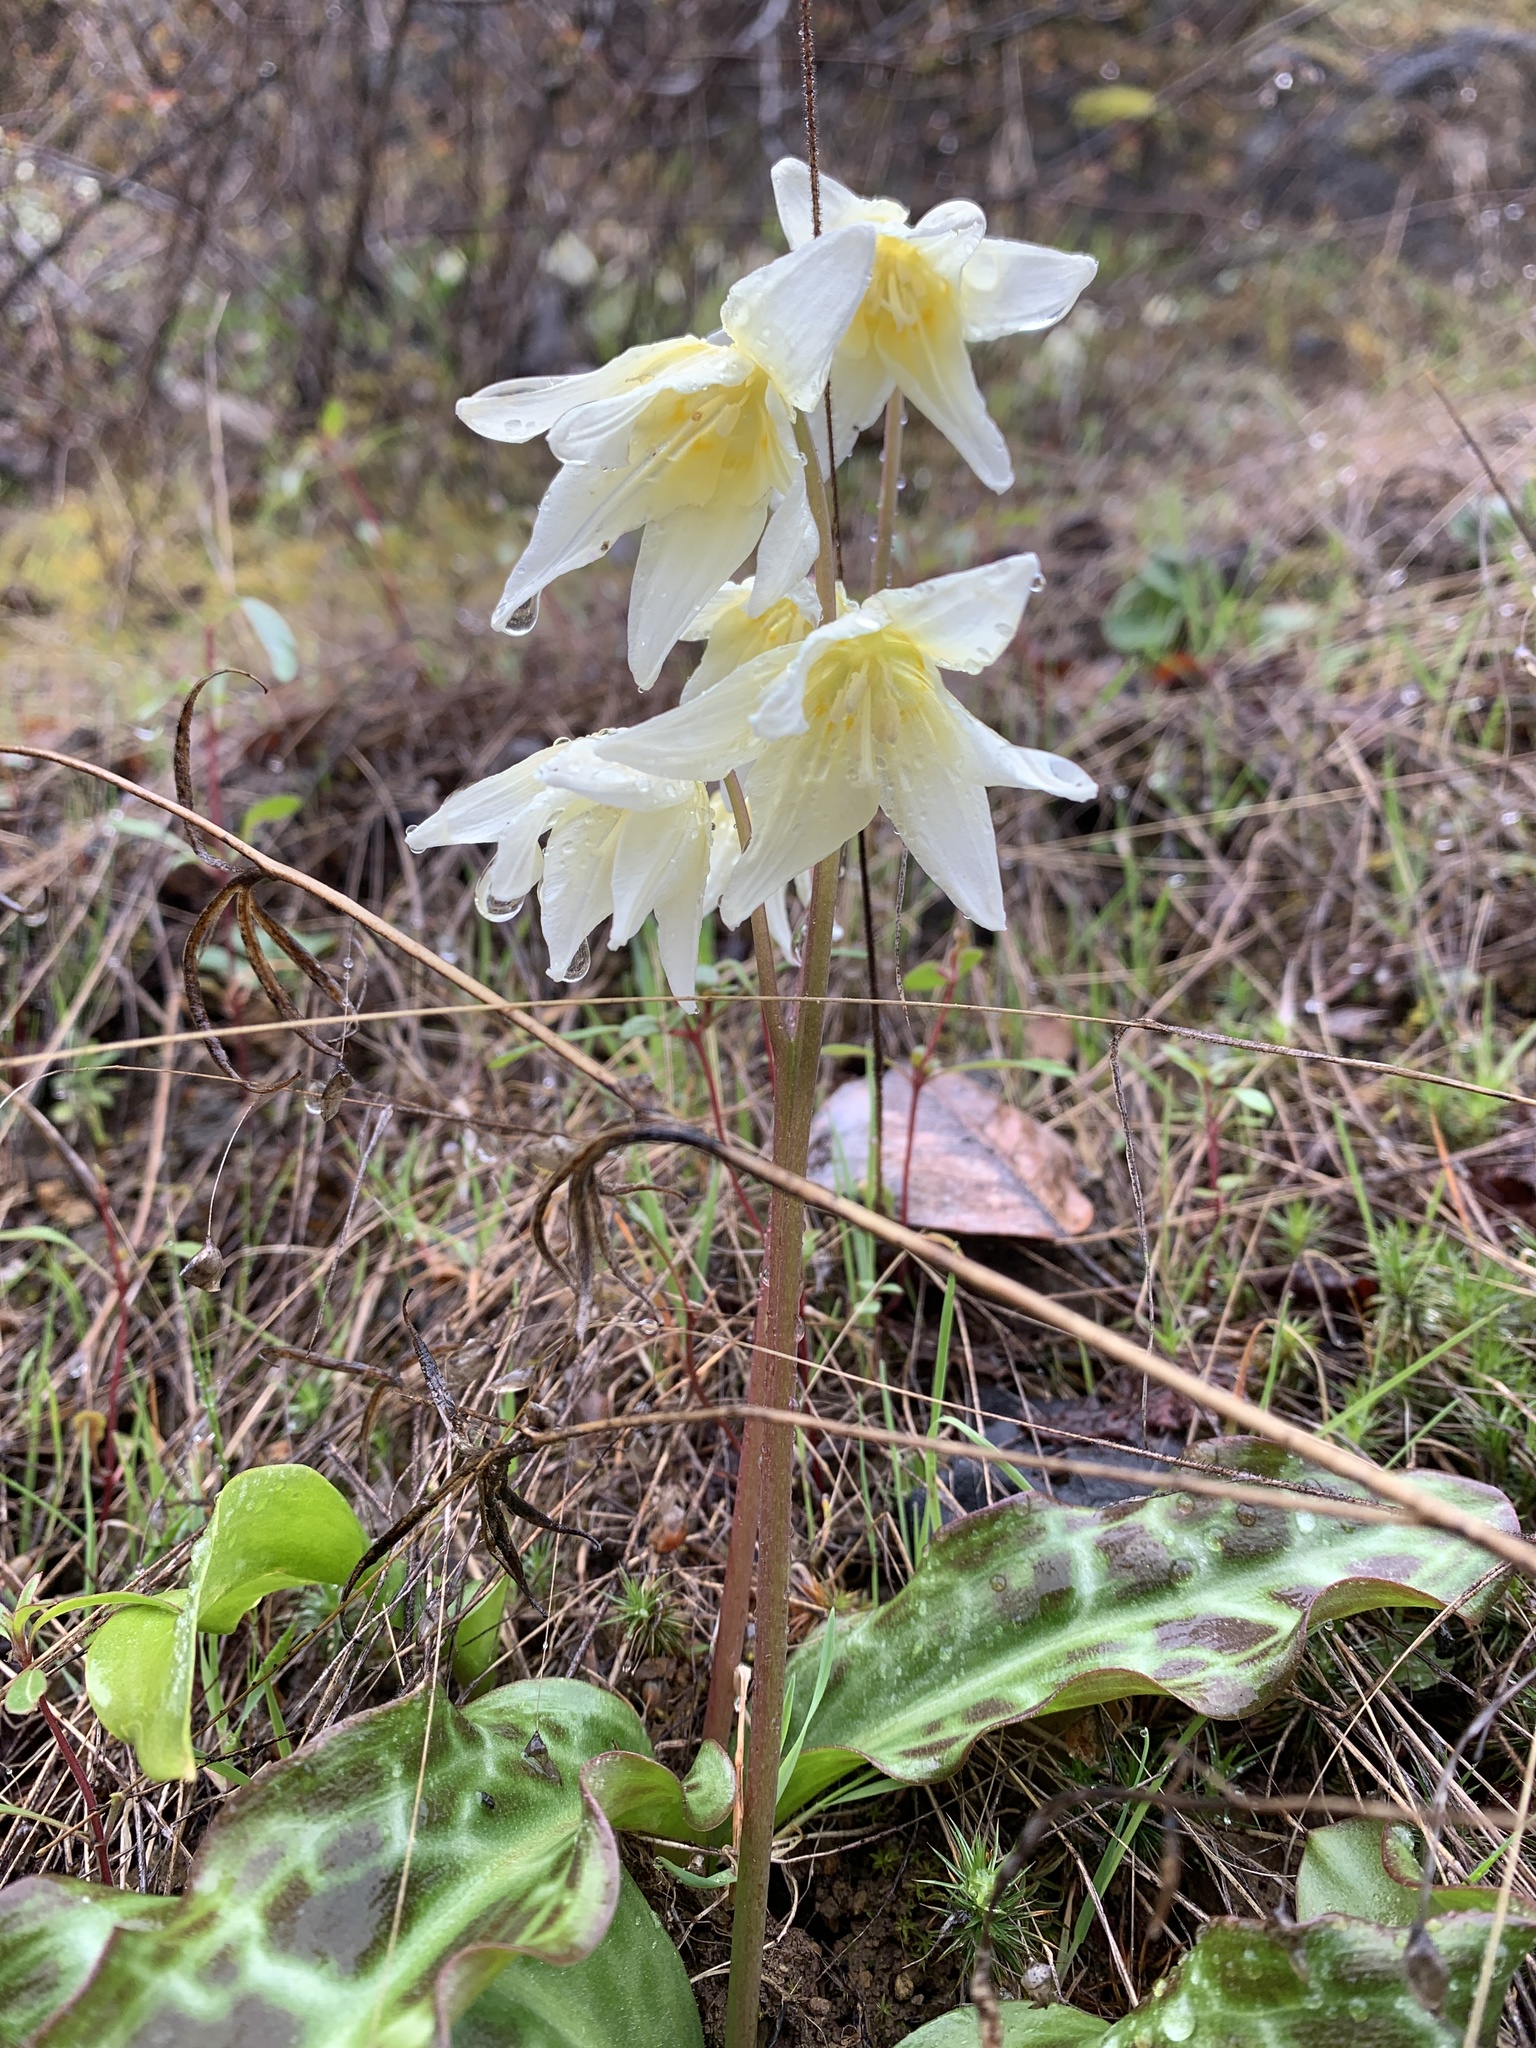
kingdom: Plantae
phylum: Tracheophyta
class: Liliopsida
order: Liliales
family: Liliaceae
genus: Erythronium
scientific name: Erythronium californicum
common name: Fawn-lily
